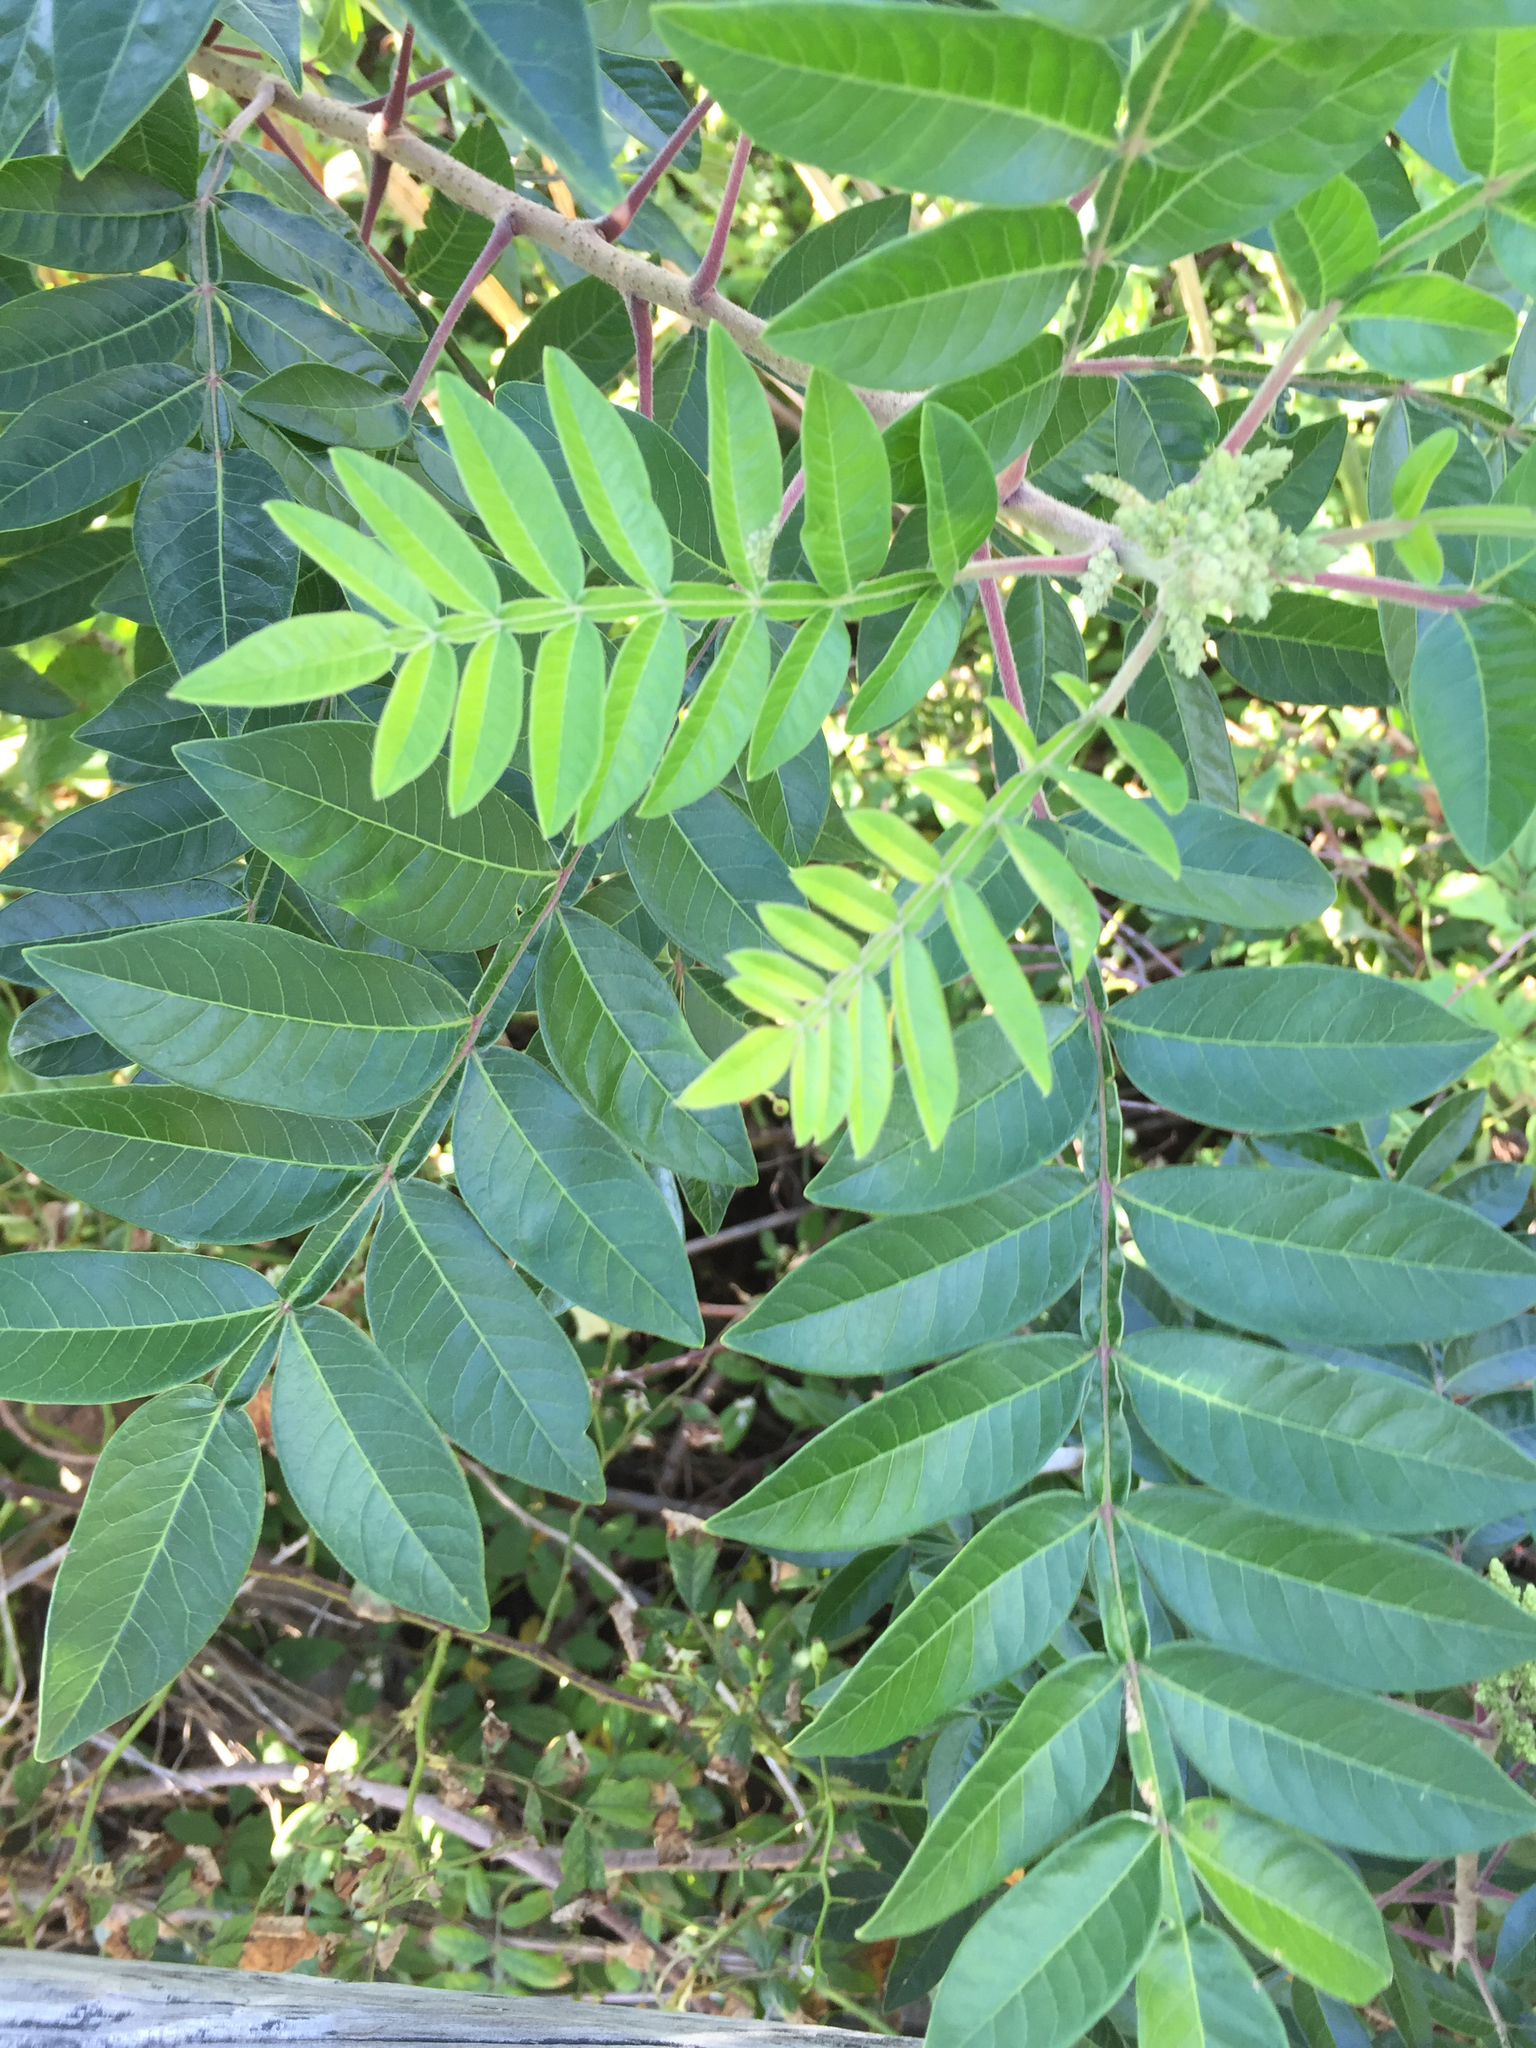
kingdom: Plantae
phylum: Tracheophyta
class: Magnoliopsida
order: Sapindales
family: Anacardiaceae
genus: Rhus
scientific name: Rhus copallina
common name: Shining sumac
